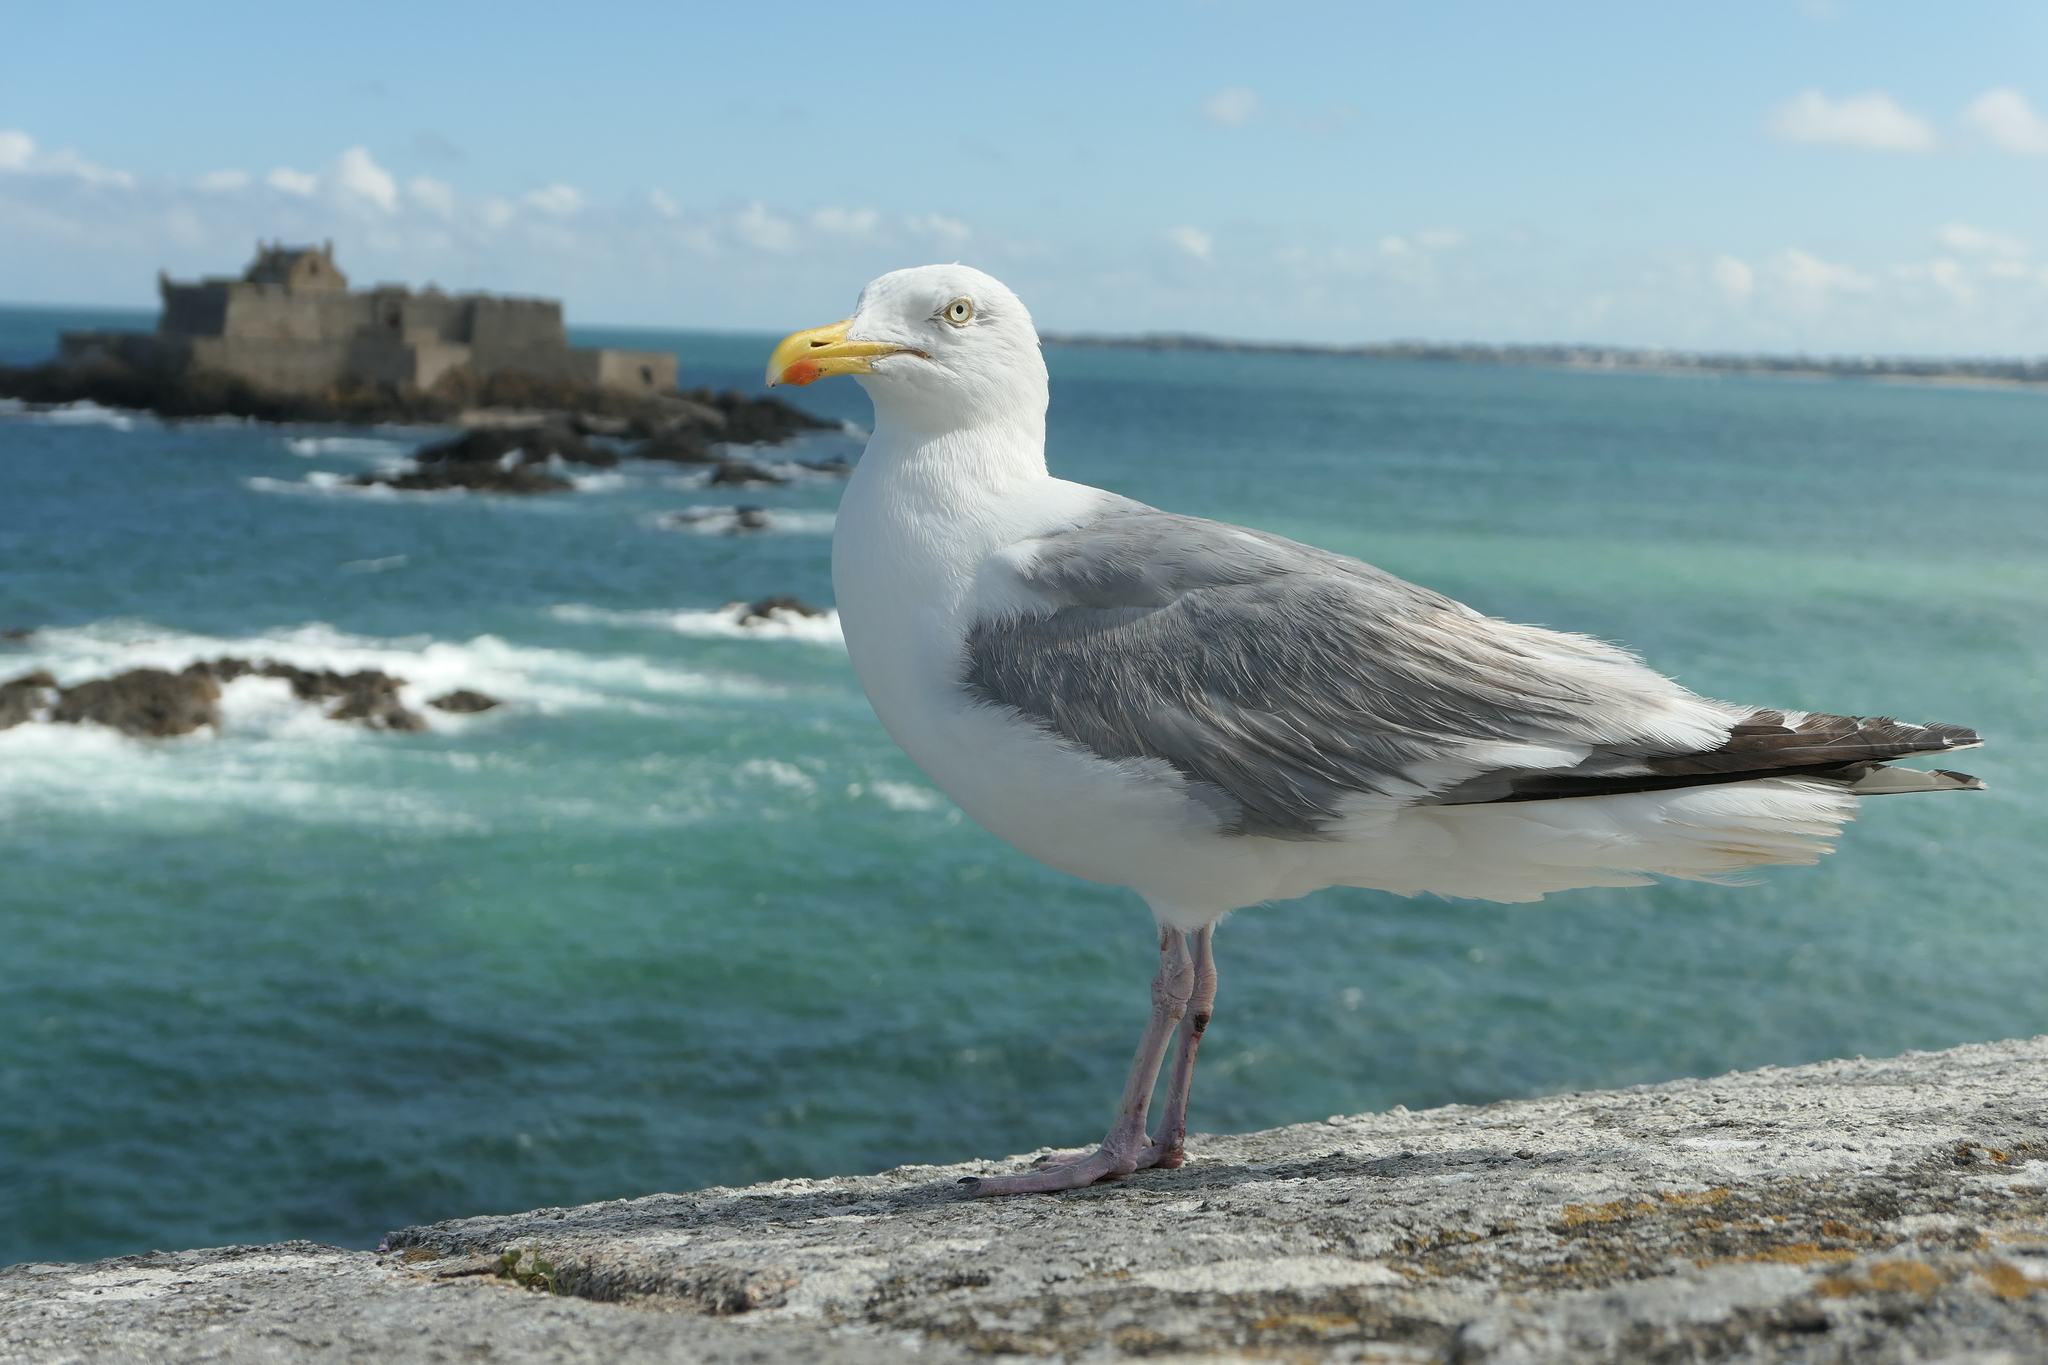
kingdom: Animalia
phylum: Chordata
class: Aves
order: Charadriiformes
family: Laridae
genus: Larus
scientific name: Larus argentatus
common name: Herring gull
